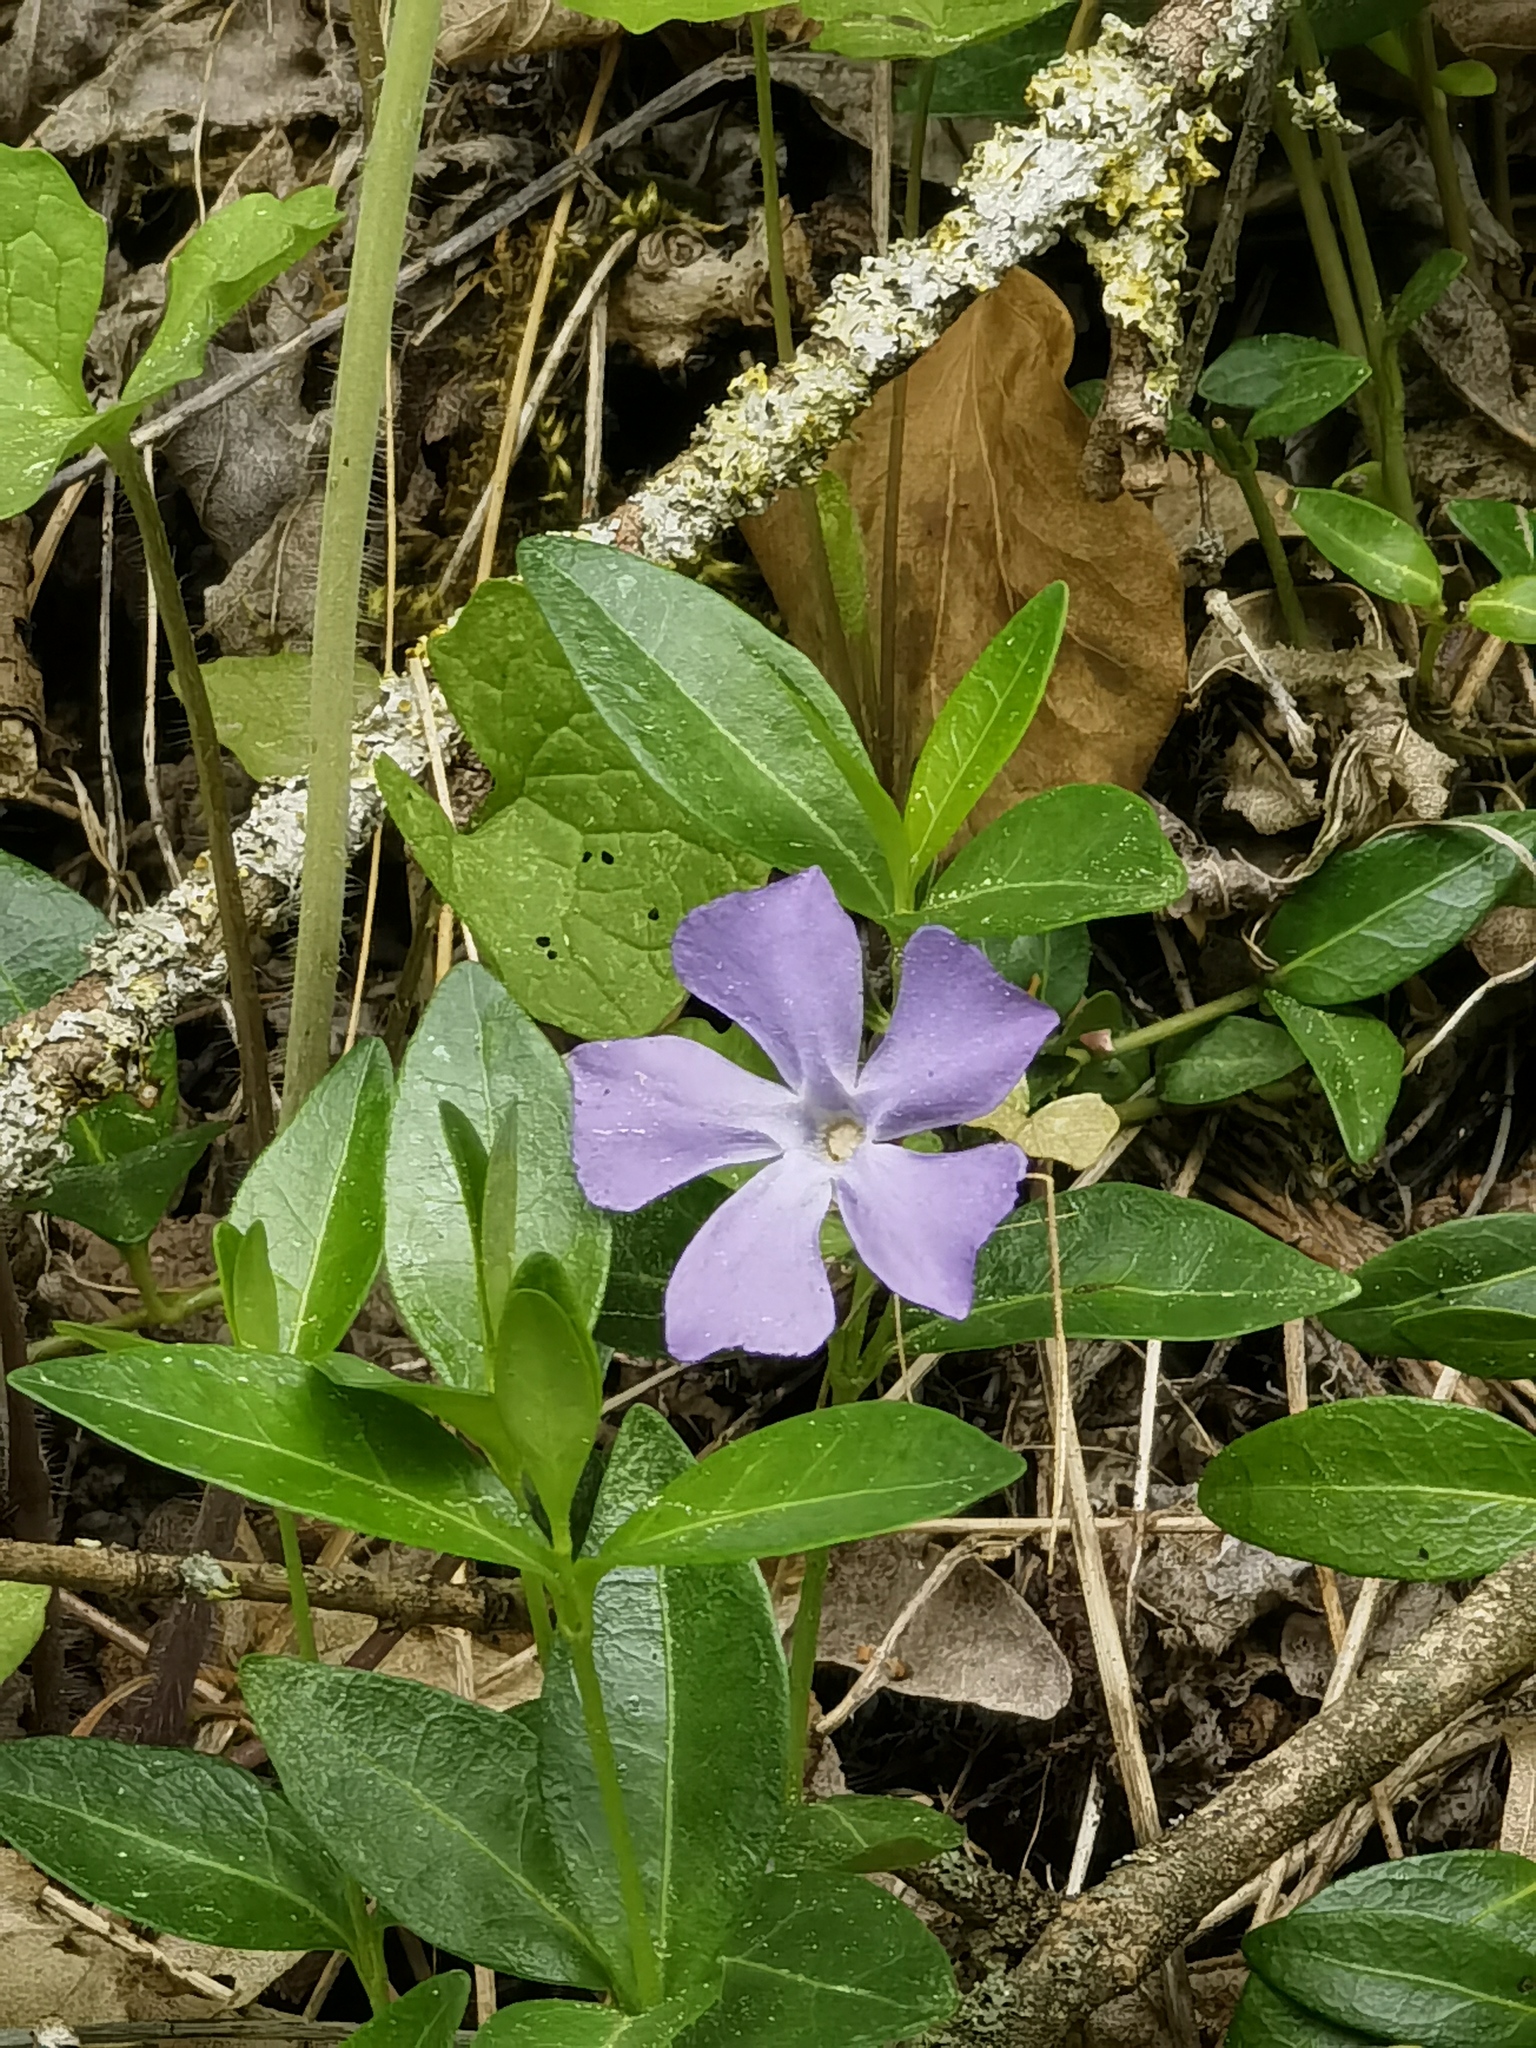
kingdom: Plantae
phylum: Tracheophyta
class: Magnoliopsida
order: Gentianales
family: Apocynaceae
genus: Vinca
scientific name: Vinca minor
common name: Lesser periwinkle
